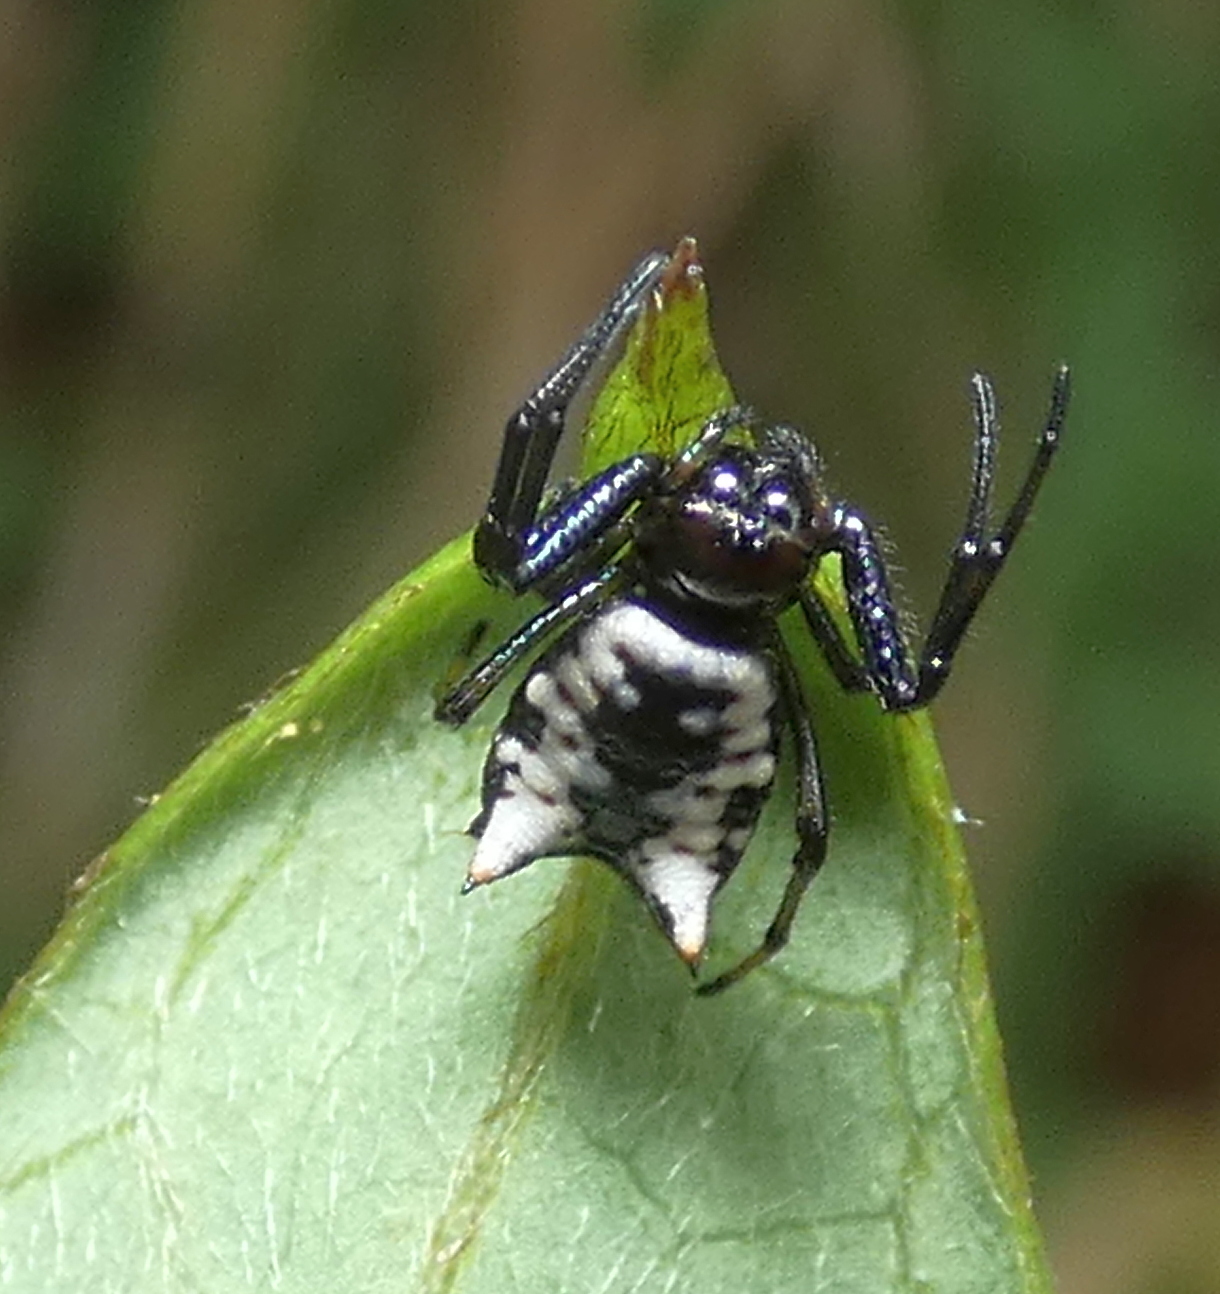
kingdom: Animalia
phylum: Arthropoda
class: Arachnida
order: Araneae
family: Araneidae
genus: Micrathena
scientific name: Micrathena patruelis
